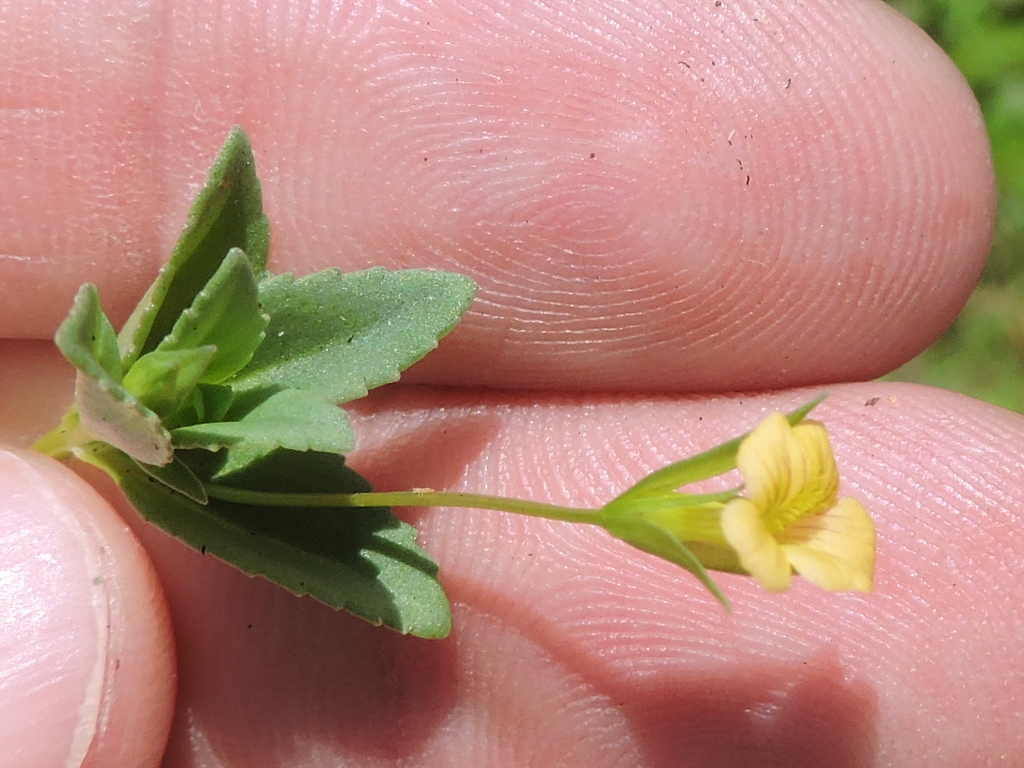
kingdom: Plantae
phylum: Tracheophyta
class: Magnoliopsida
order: Lamiales
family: Plantaginaceae
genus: Mecardonia
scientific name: Mecardonia procumbens
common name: Baby jump-up
